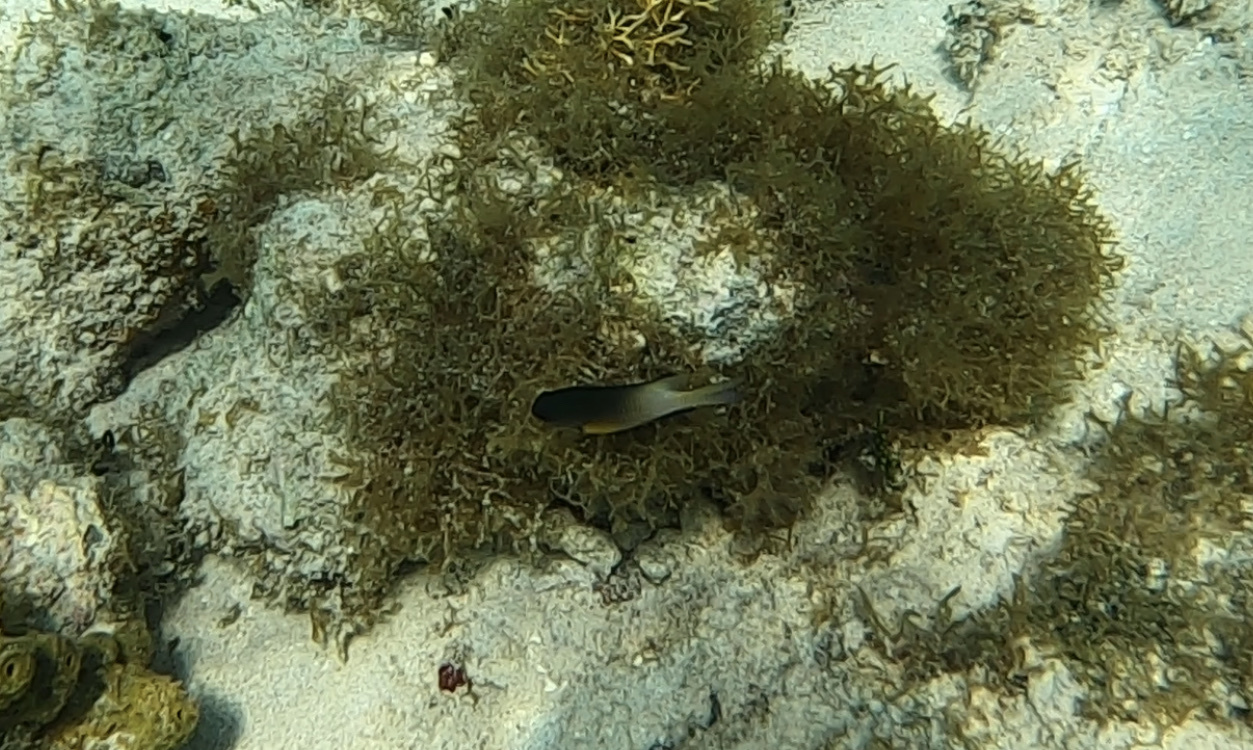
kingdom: Animalia
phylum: Chordata
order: Perciformes
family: Pomacentridae
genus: Stegastes
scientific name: Stegastes partitus
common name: Bicolor damselfish
